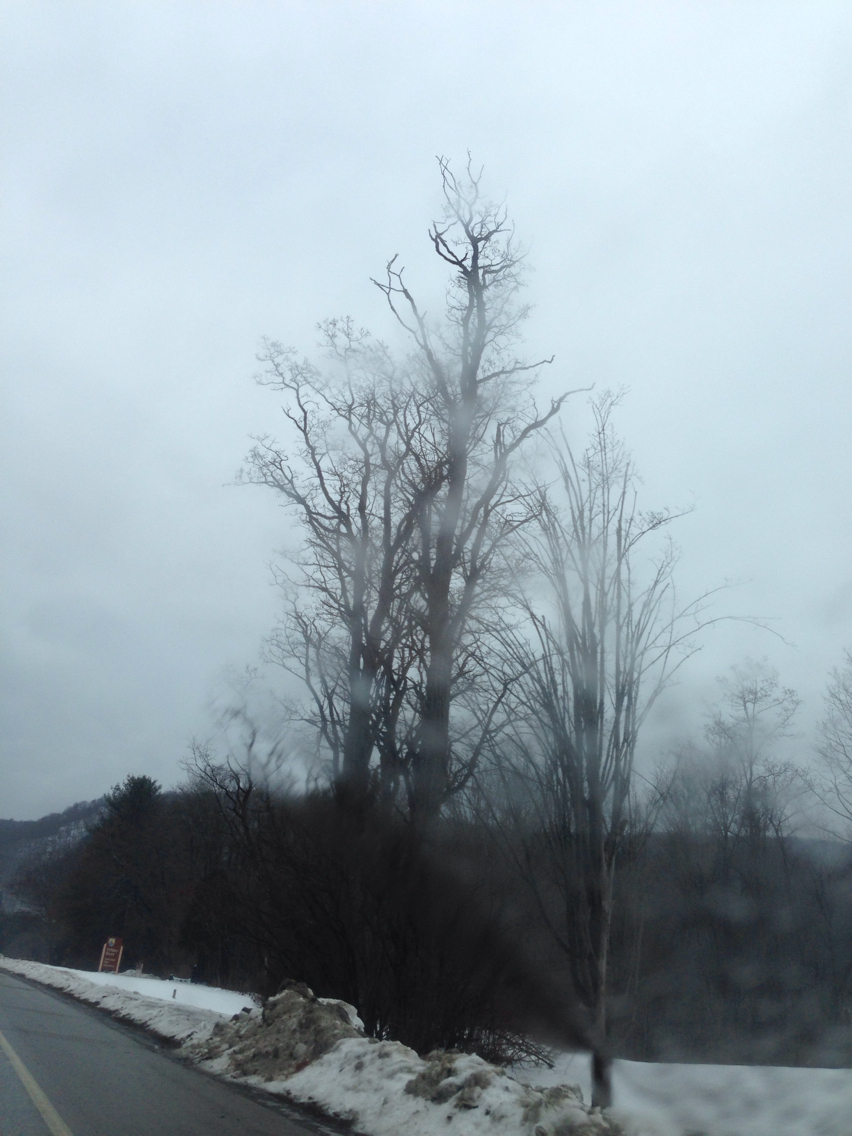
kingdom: Plantae
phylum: Tracheophyta
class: Magnoliopsida
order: Fabales
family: Fabaceae
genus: Robinia
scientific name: Robinia pseudoacacia
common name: Black locust
